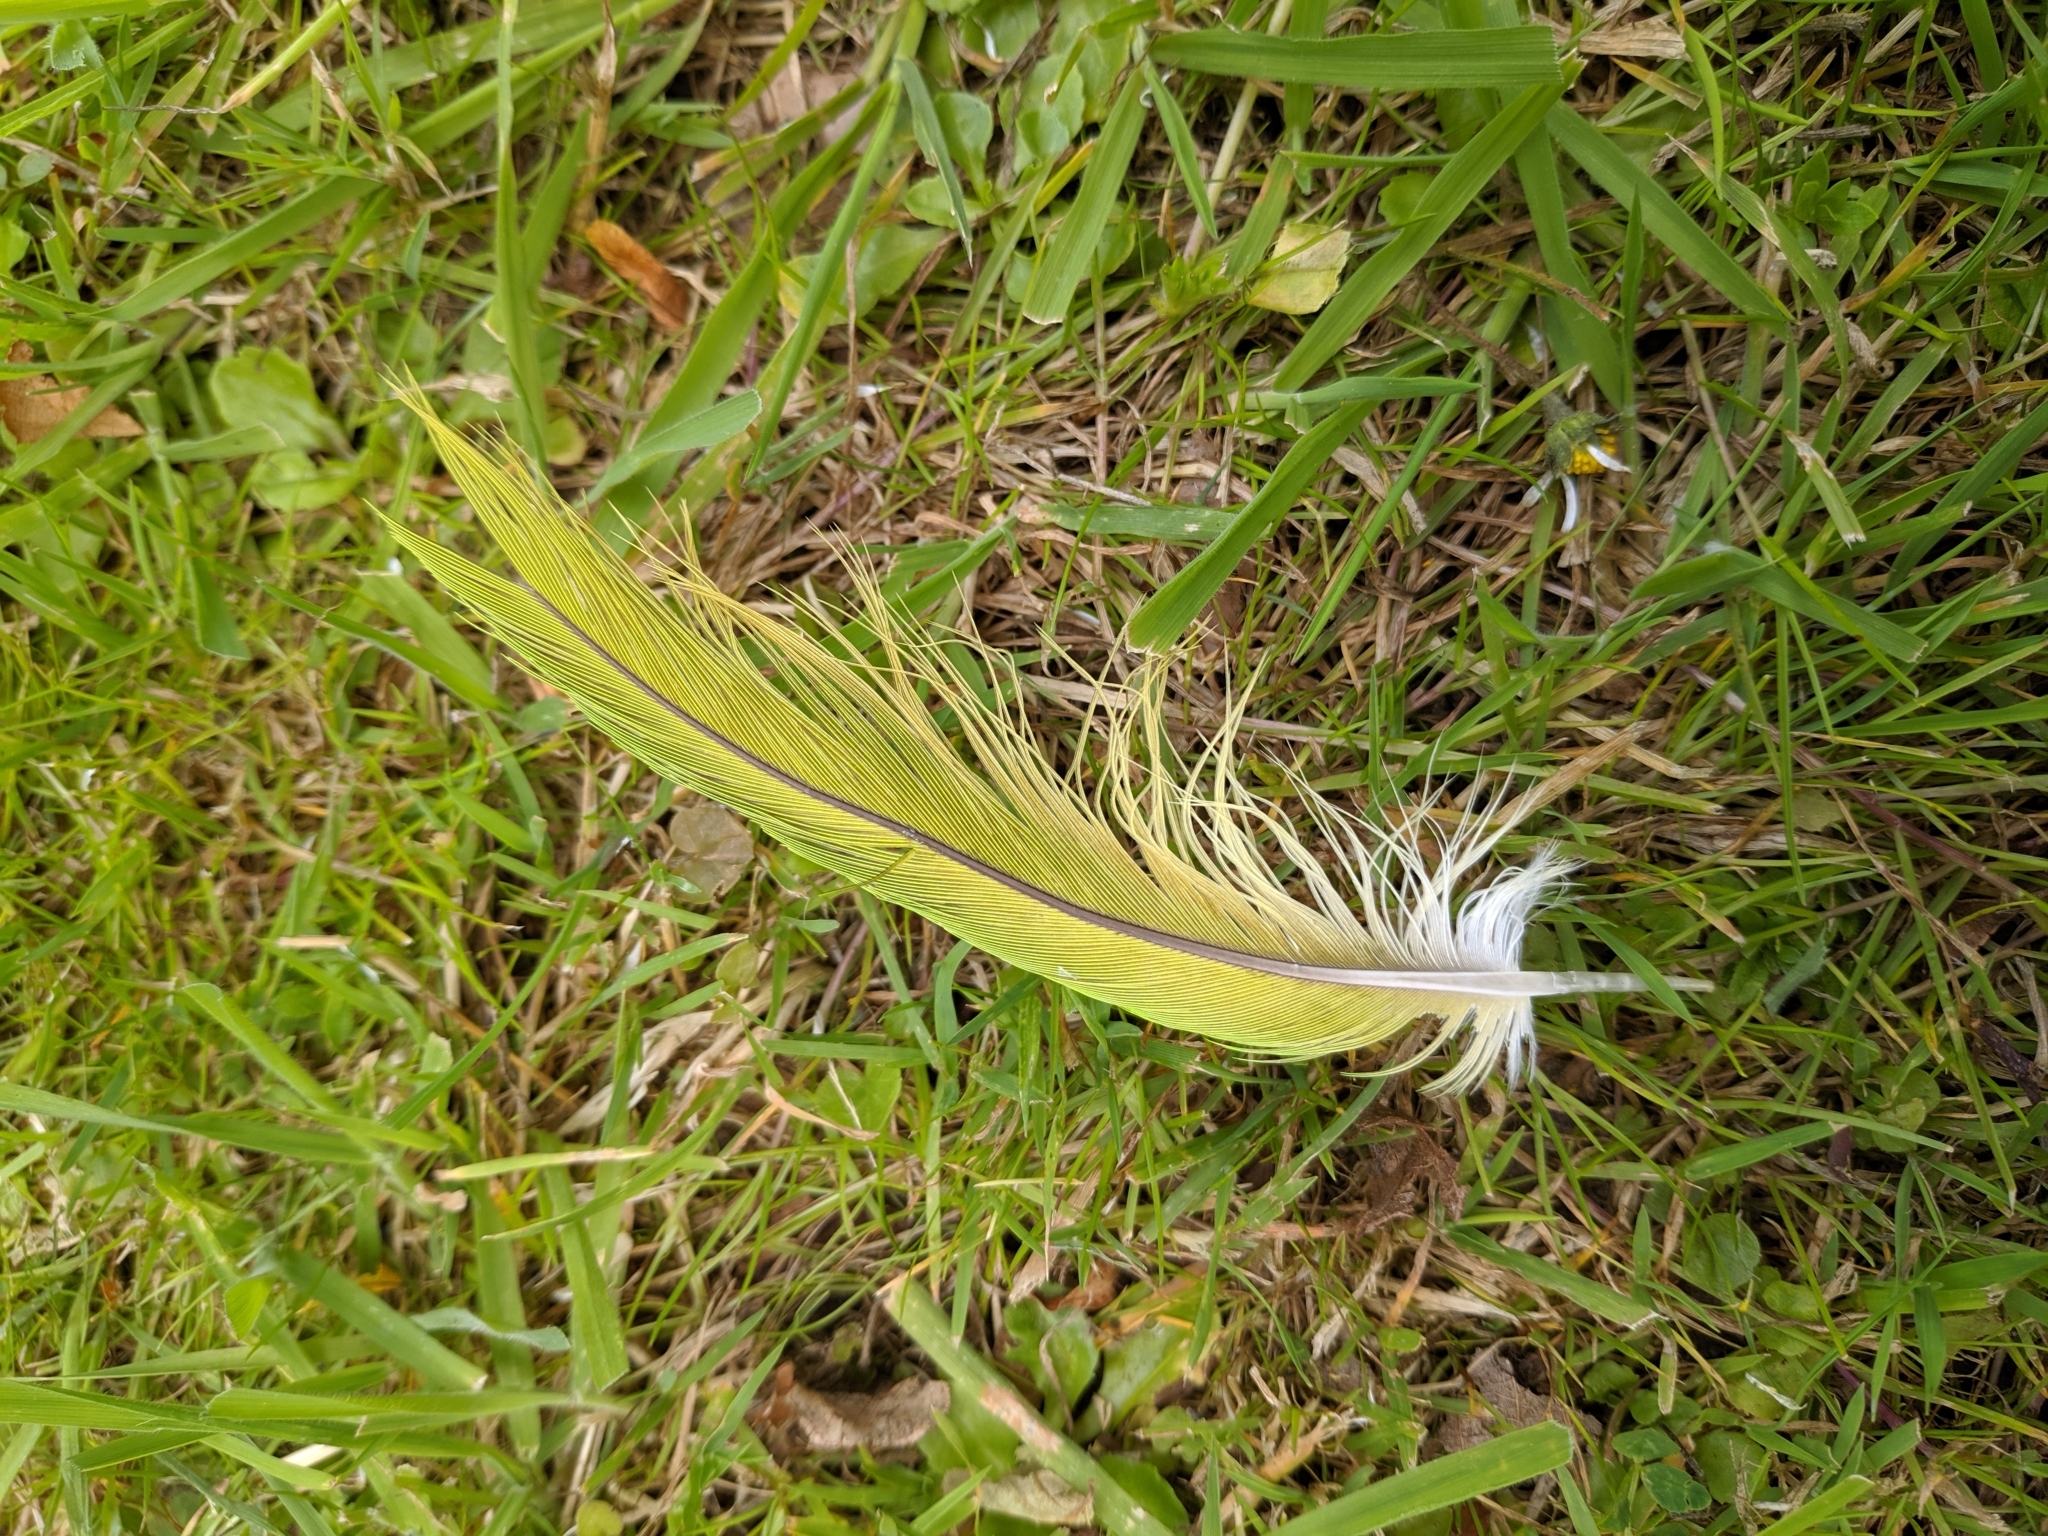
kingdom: Animalia
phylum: Chordata
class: Aves
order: Psittaciformes
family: Psittacidae
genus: Psittacula
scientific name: Psittacula krameri
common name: Rose-ringed parakeet
